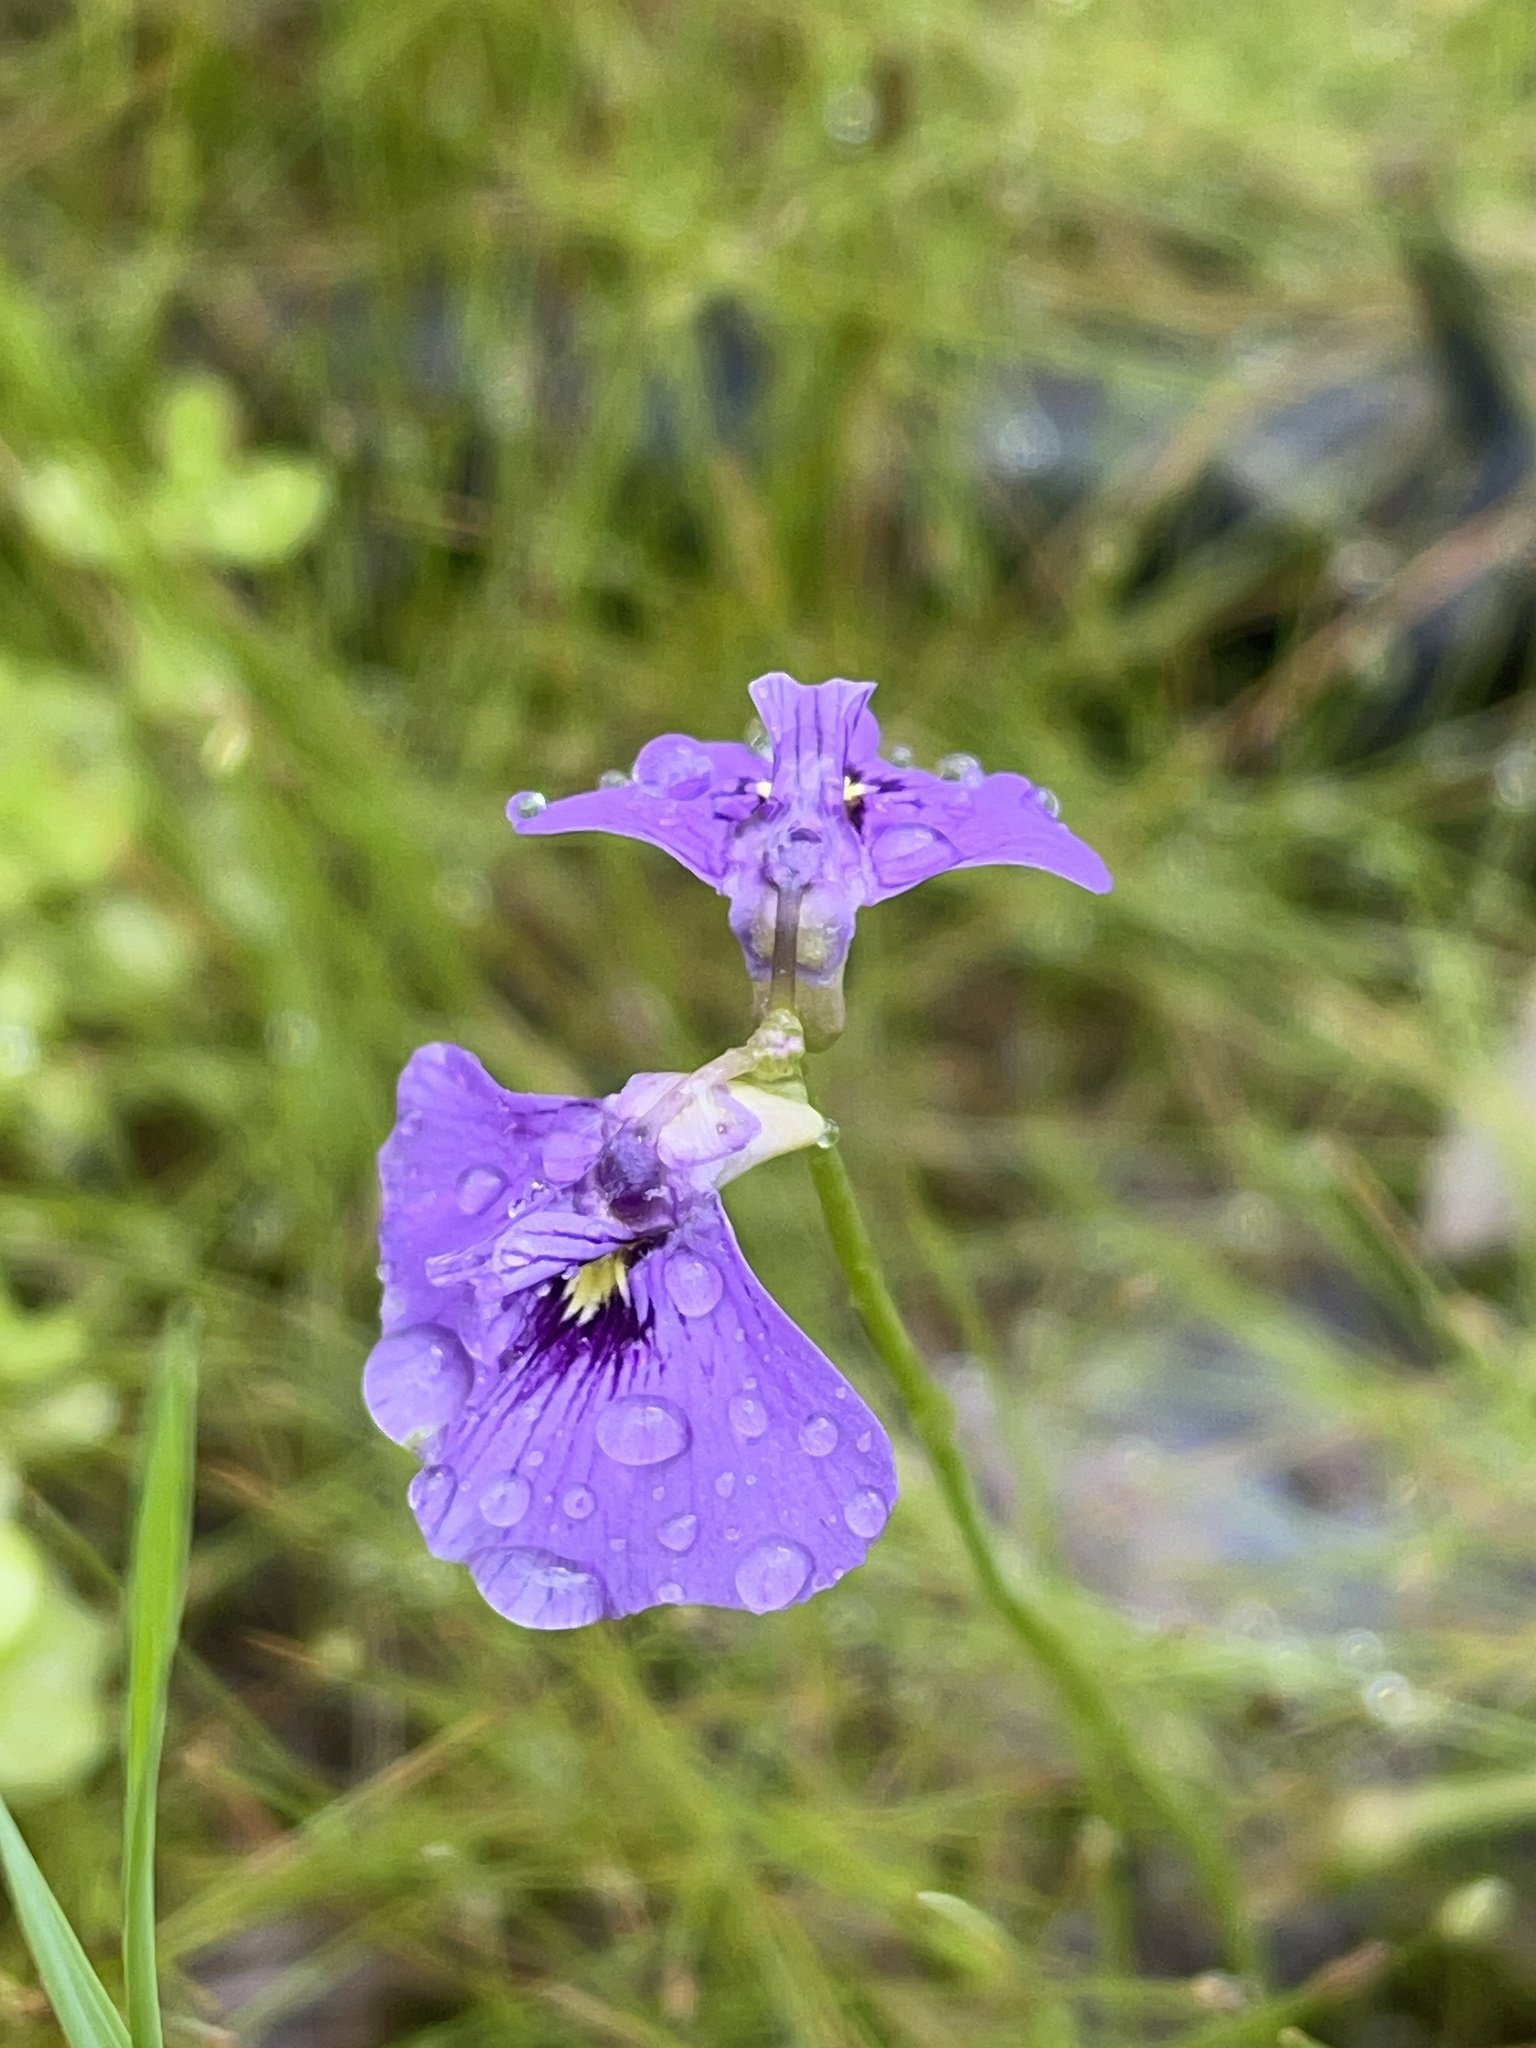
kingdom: Plantae
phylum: Tracheophyta
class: Magnoliopsida
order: Lamiales
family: Lentibulariaceae
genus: Utricularia
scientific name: Utricularia beaugleholei
